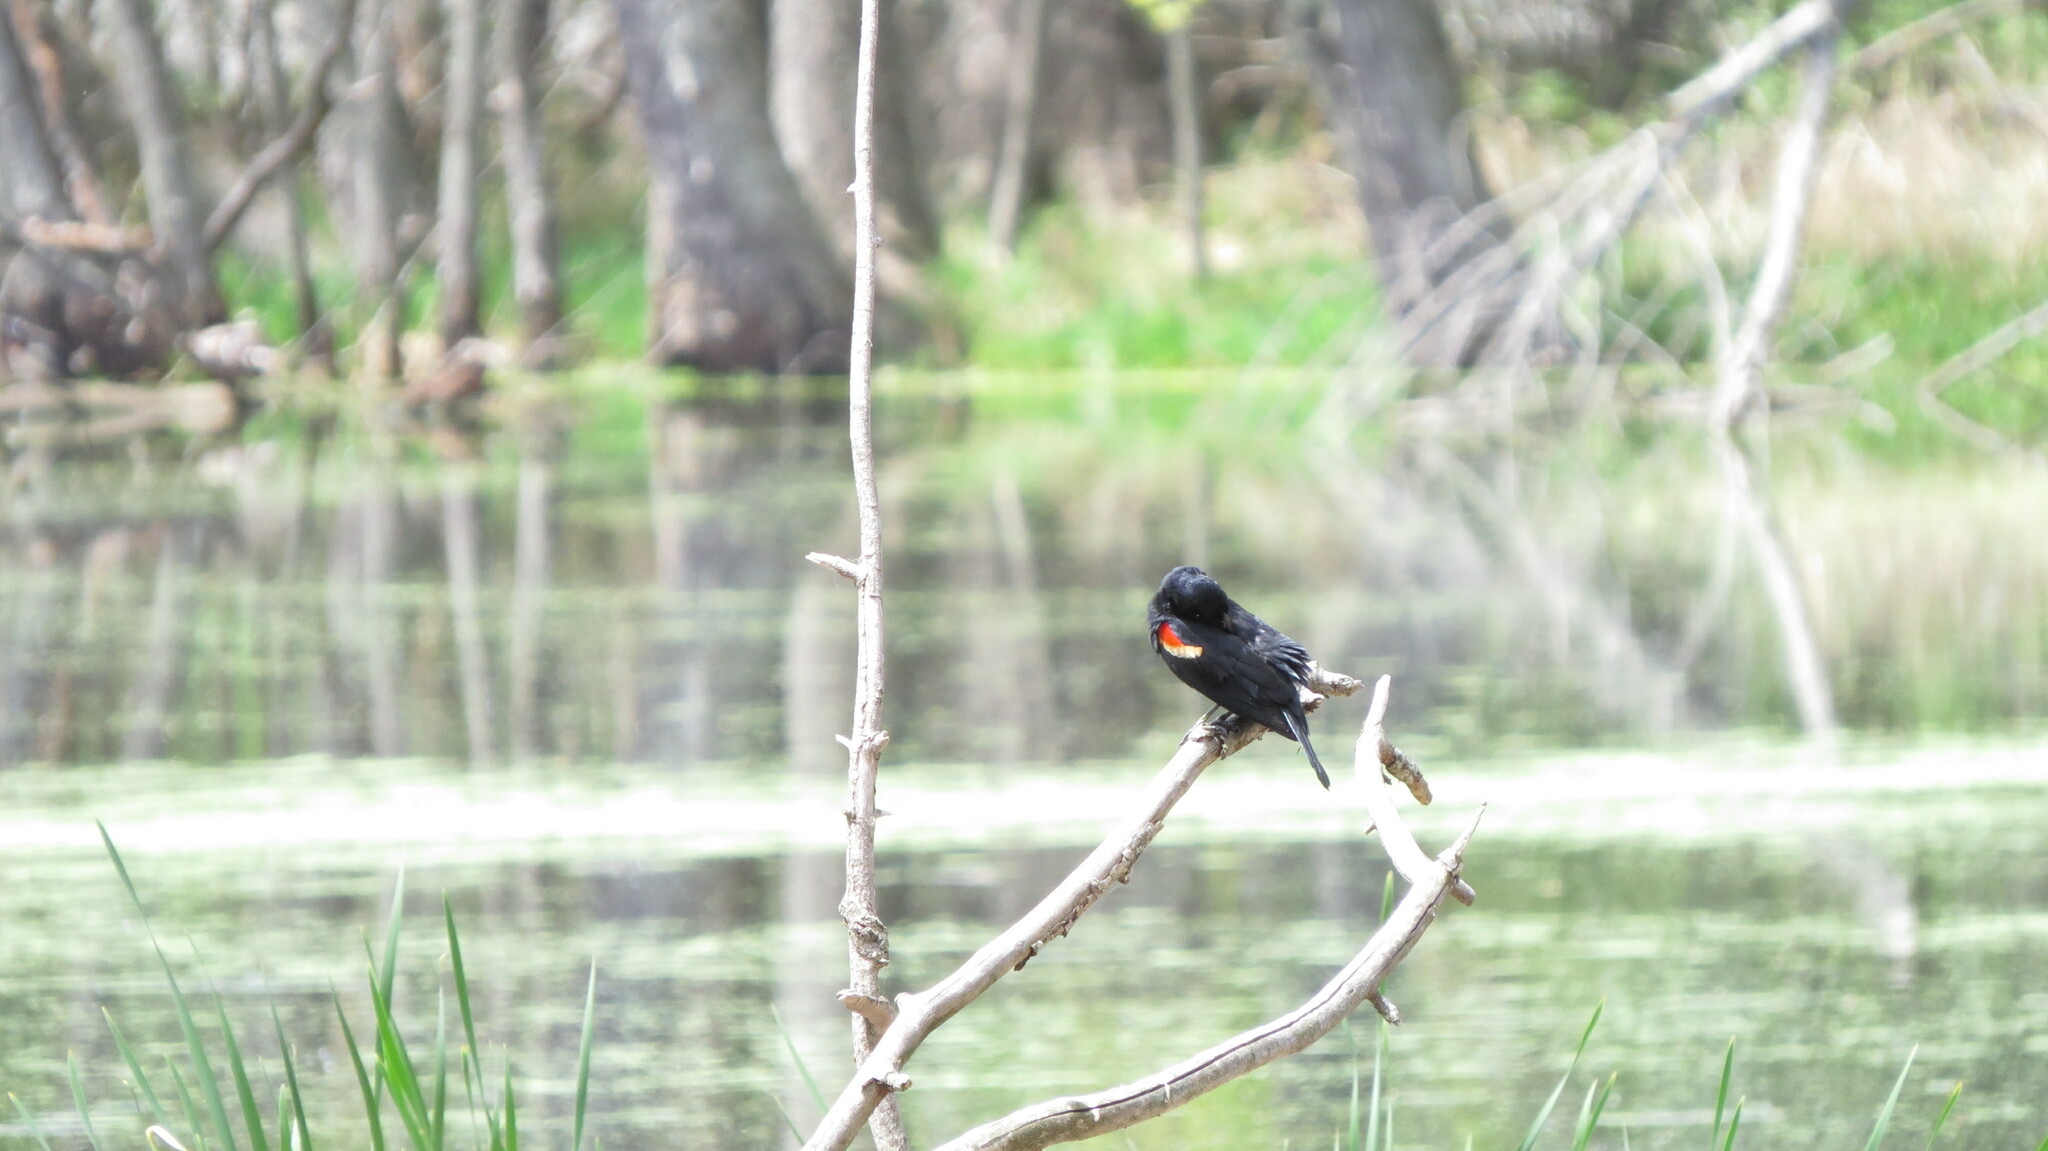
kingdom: Animalia
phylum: Chordata
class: Aves
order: Passeriformes
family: Icteridae
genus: Agelaius
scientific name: Agelaius phoeniceus
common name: Red-winged blackbird
